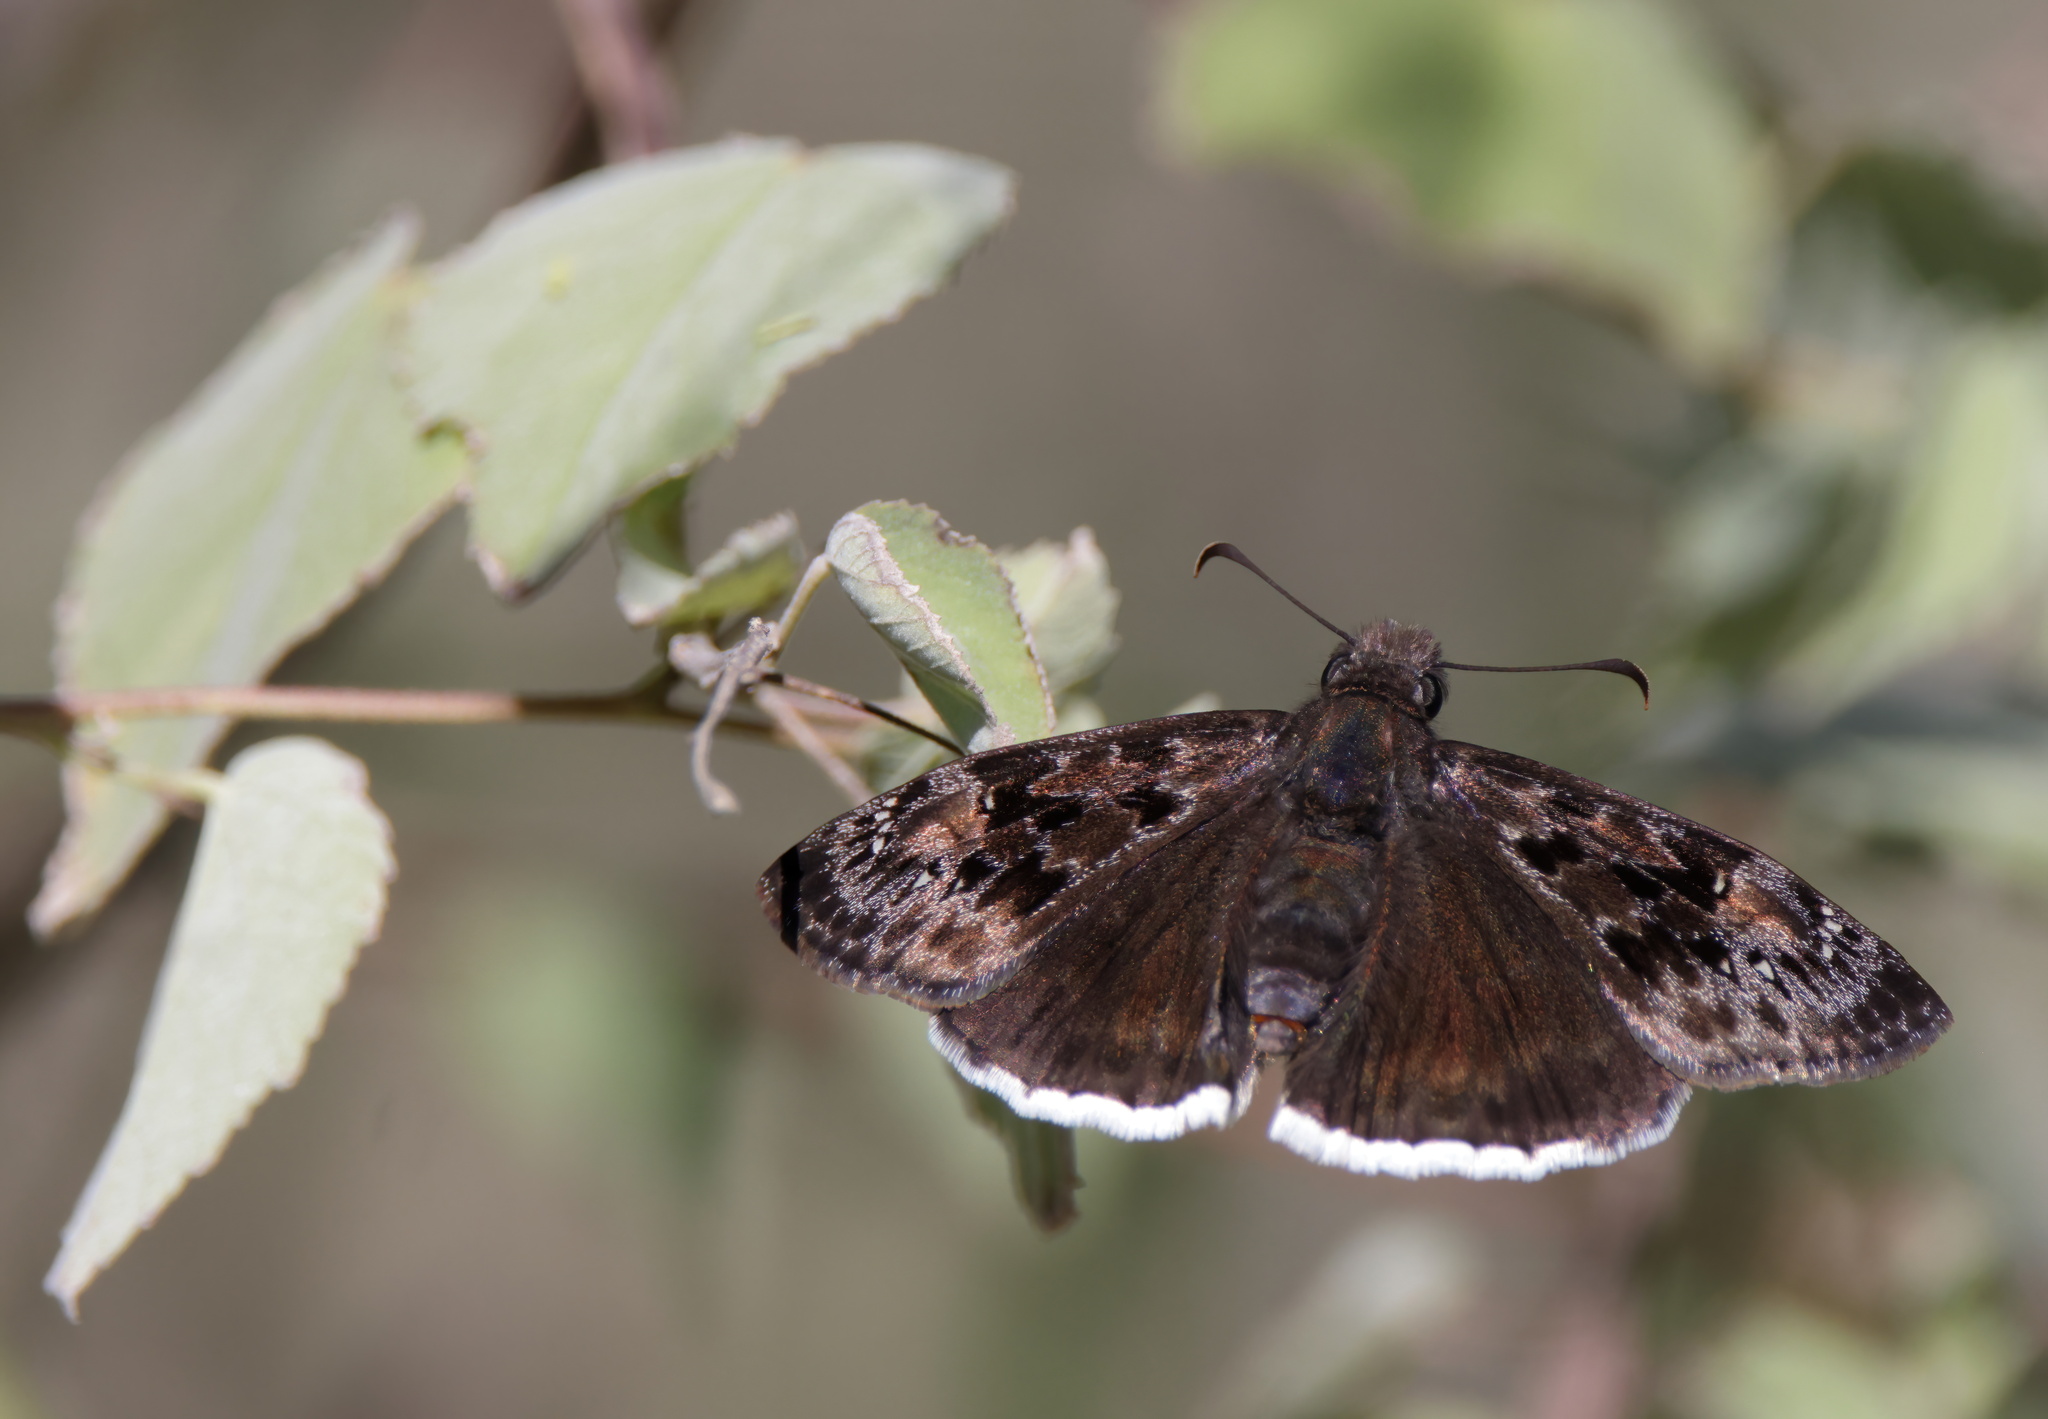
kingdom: Animalia
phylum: Arthropoda
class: Insecta
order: Lepidoptera
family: Hesperiidae
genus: Erynnis
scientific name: Erynnis tristis
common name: Mournful duskywing
